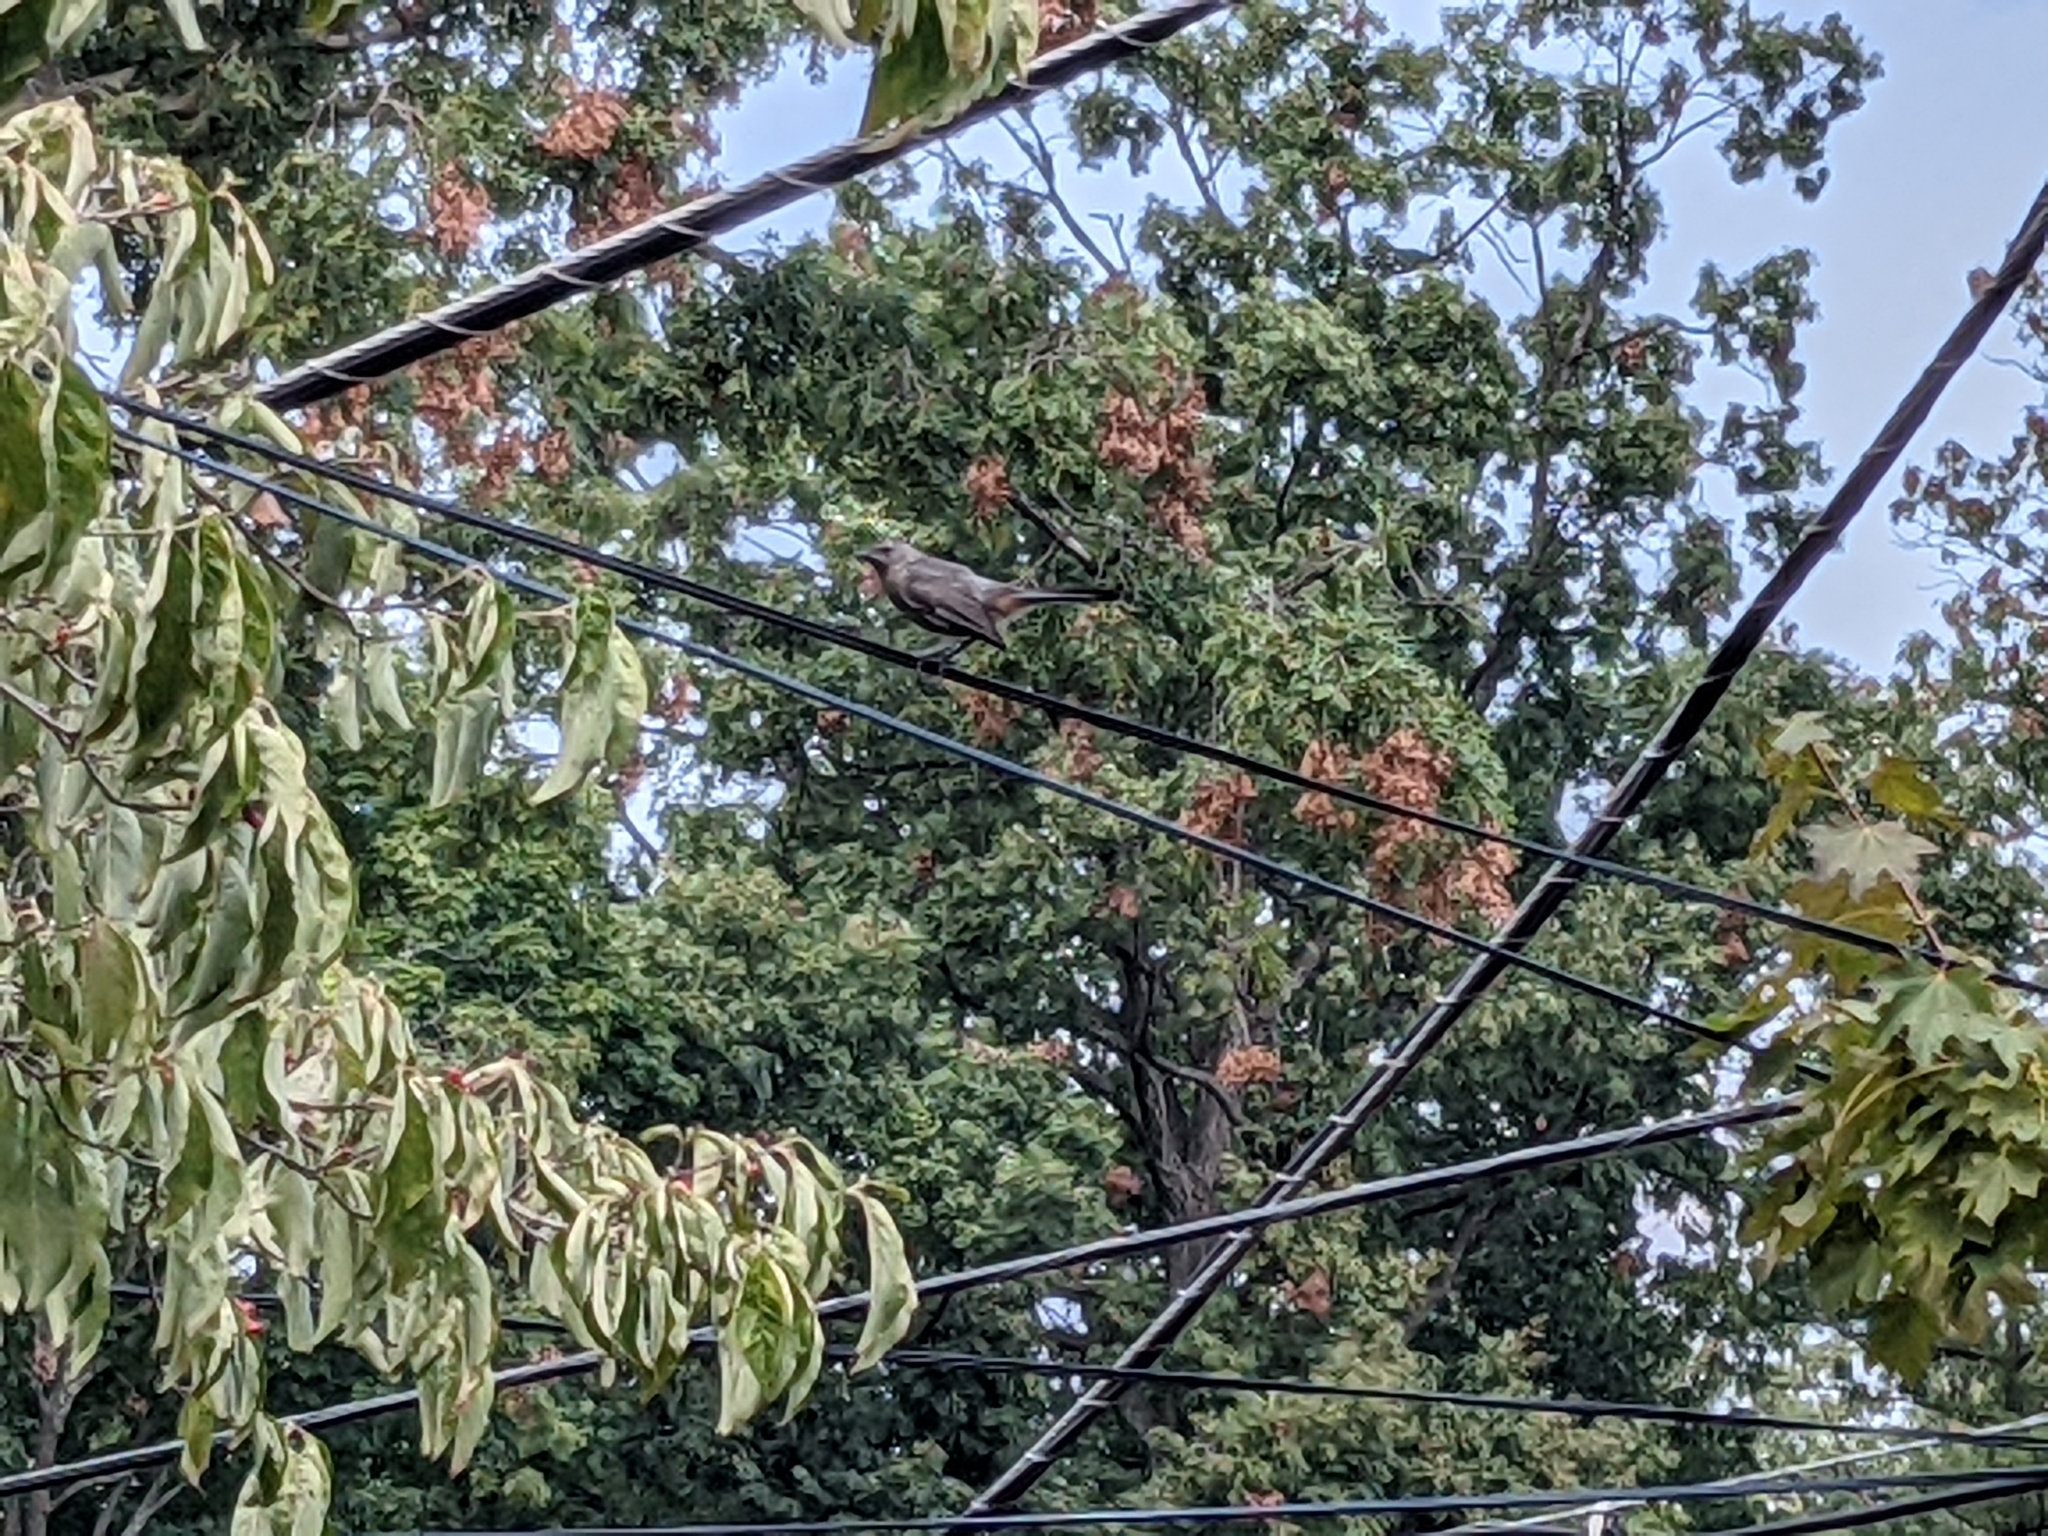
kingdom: Animalia
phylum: Chordata
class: Aves
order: Passeriformes
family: Mimidae
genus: Dumetella
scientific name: Dumetella carolinensis
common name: Gray catbird
